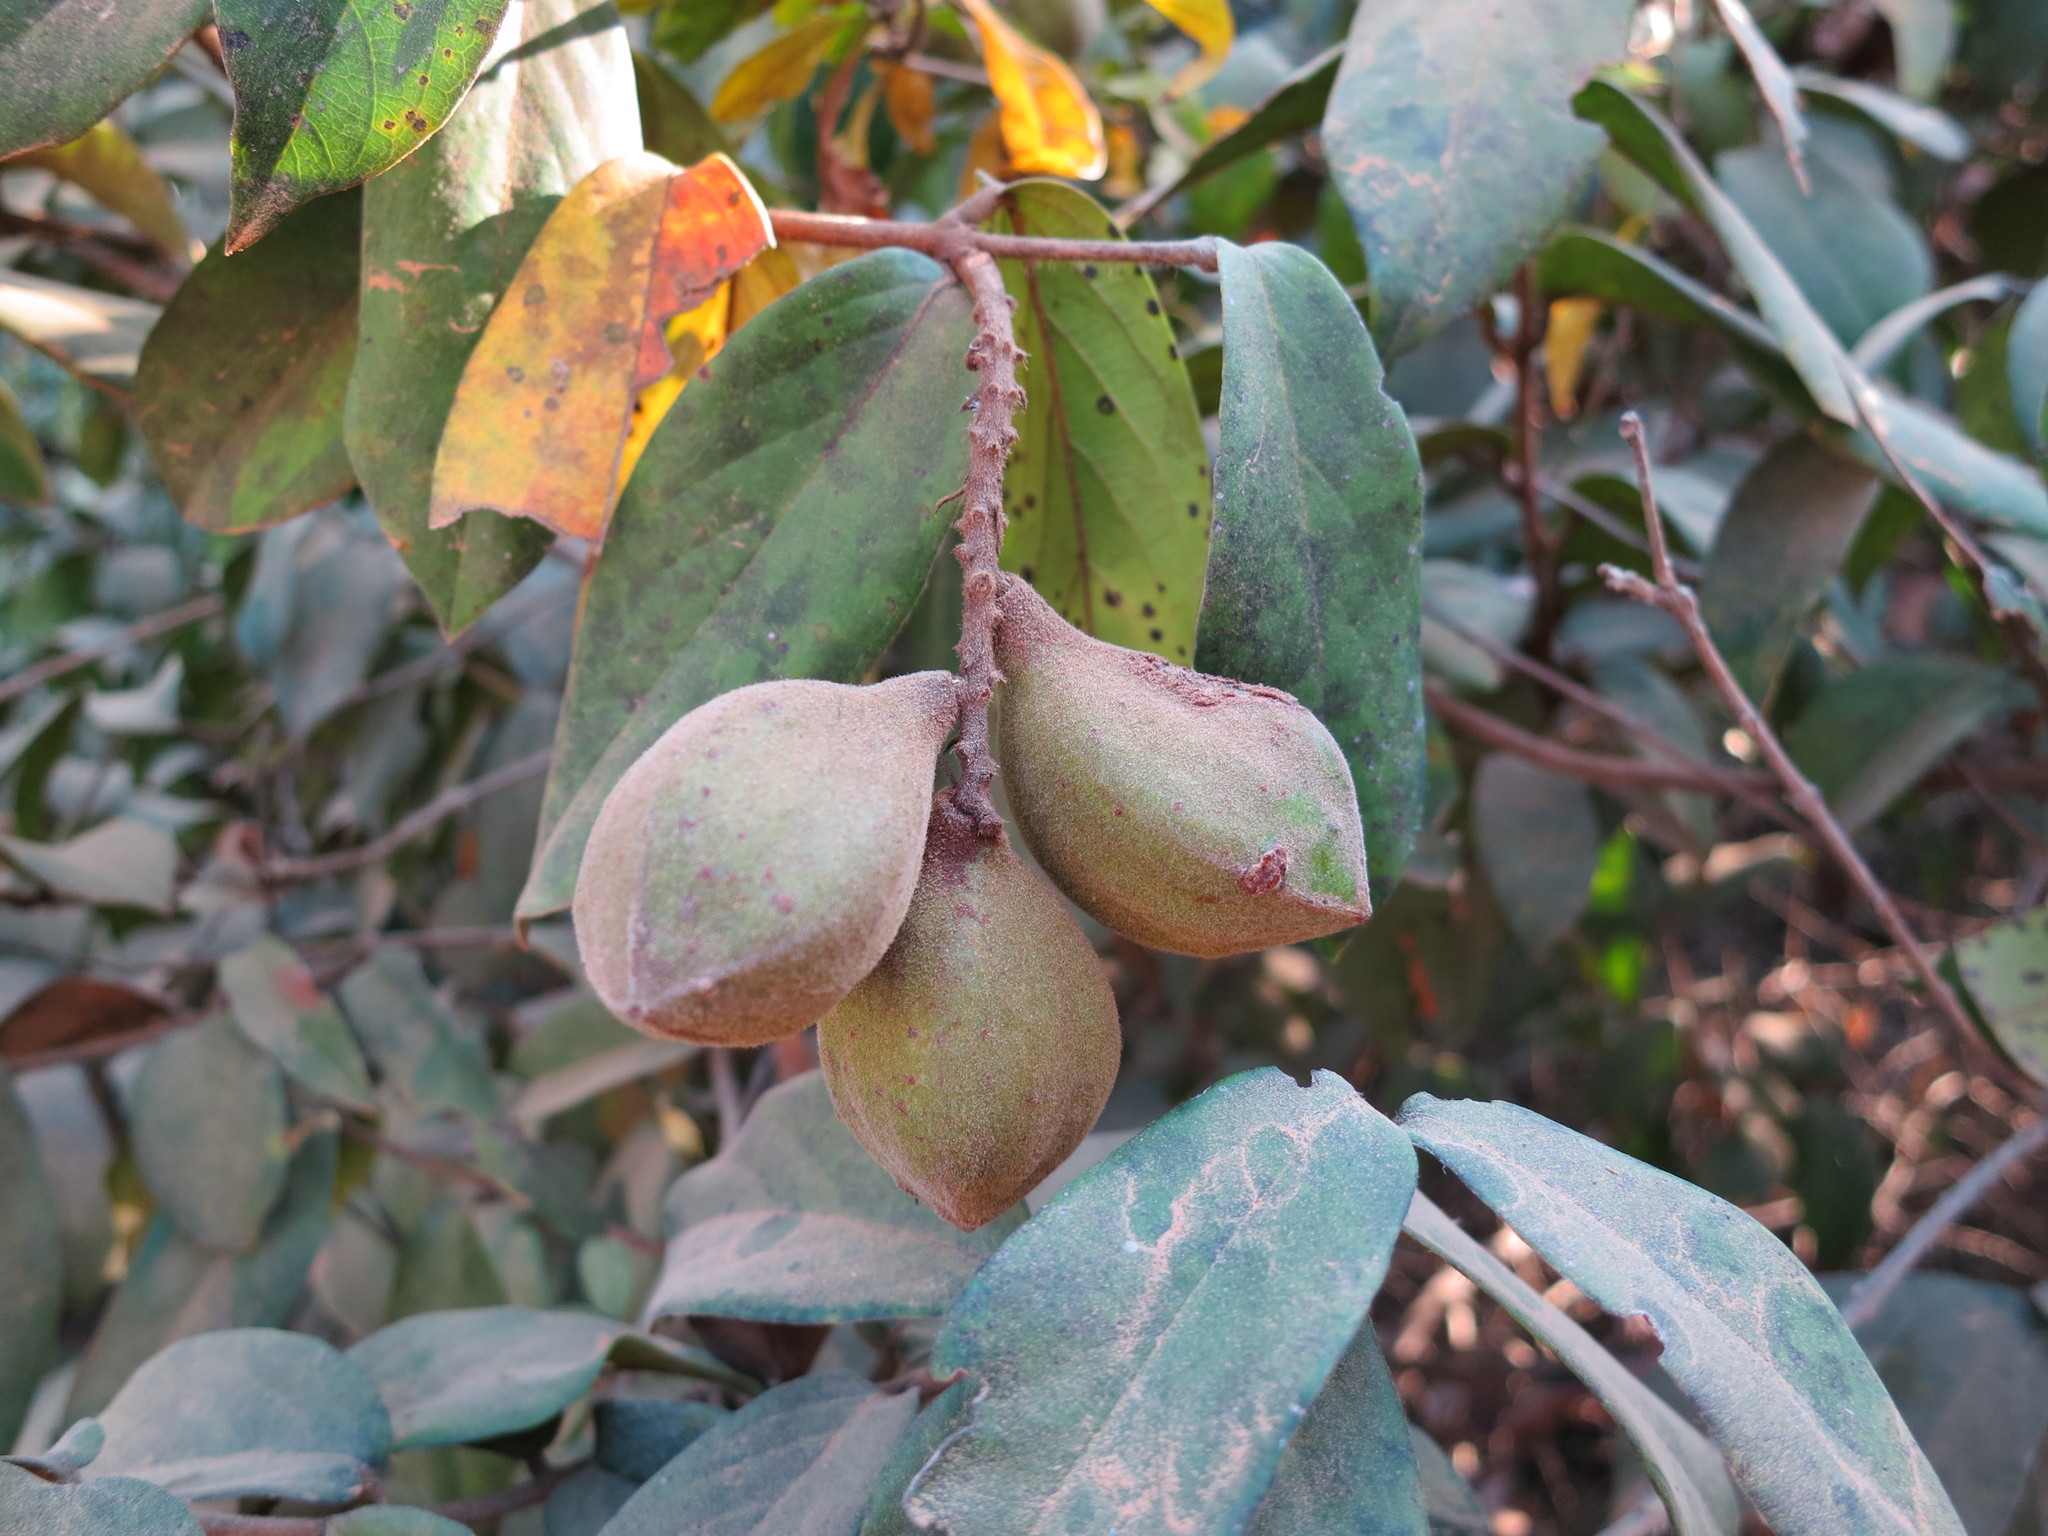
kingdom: Plantae
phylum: Tracheophyta
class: Magnoliopsida
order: Myrtales
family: Combretaceae
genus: Combretum
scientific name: Combretum carringtonianum
